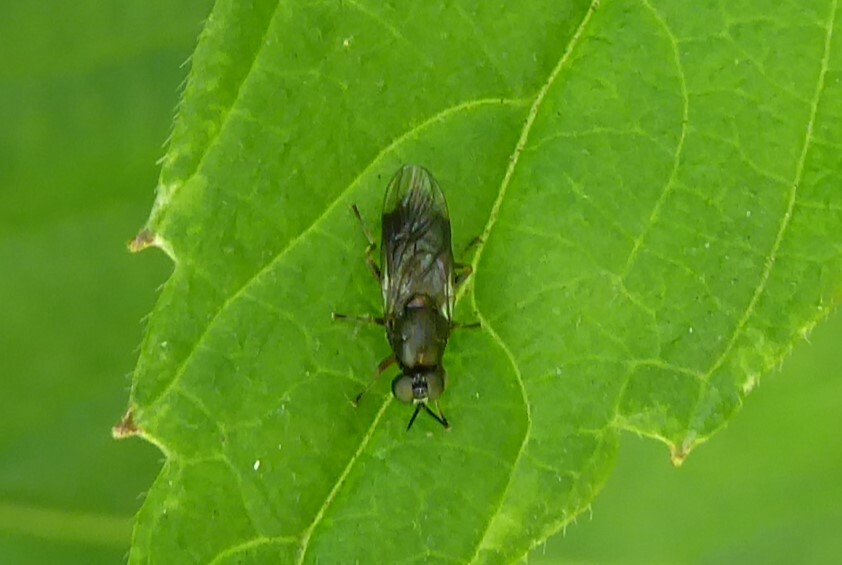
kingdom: Animalia
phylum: Arthropoda
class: Insecta
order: Diptera
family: Stratiomyidae
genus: Zealandoberis
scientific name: Zealandoberis violacea
